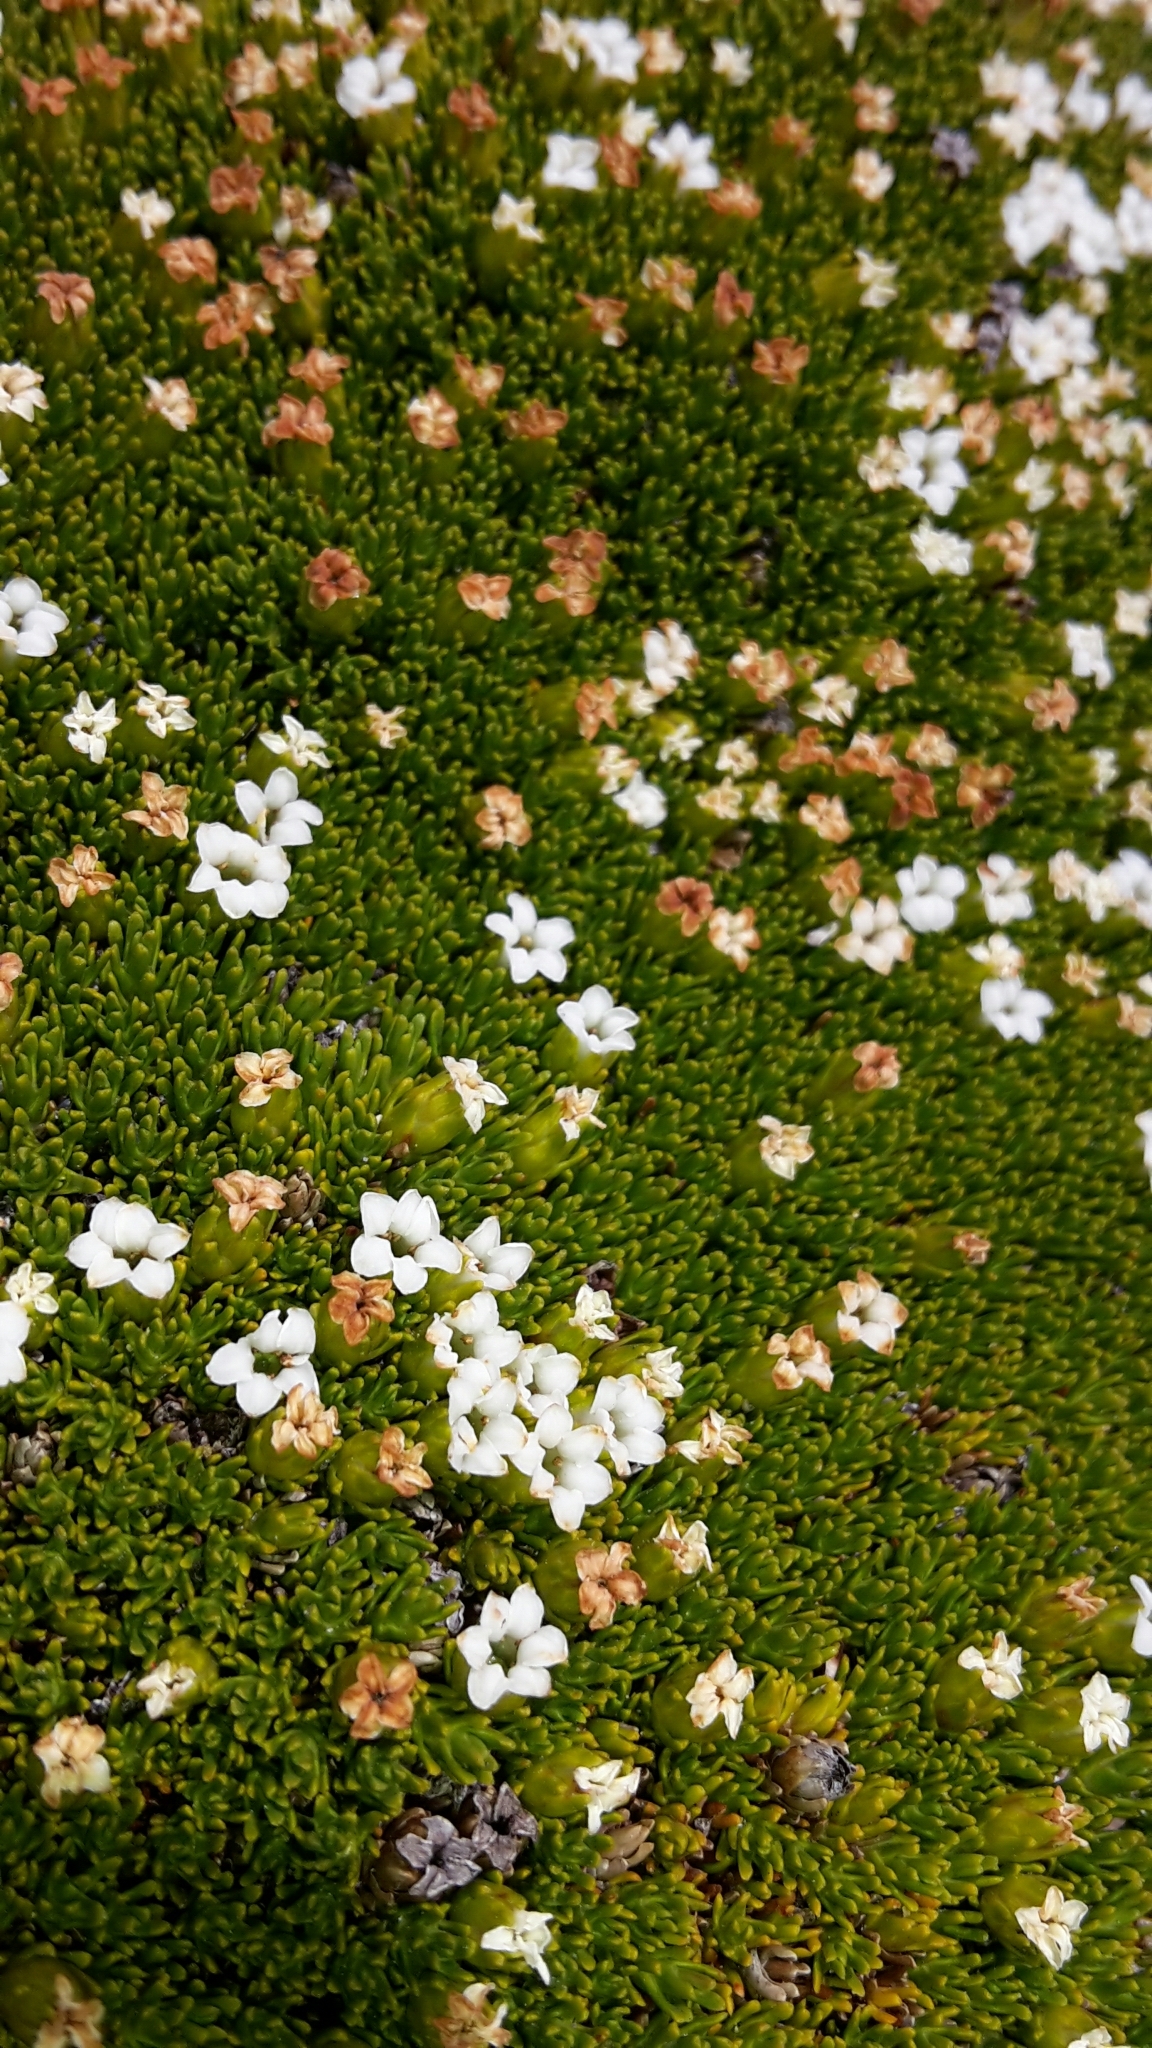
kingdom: Plantae
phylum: Tracheophyta
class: Magnoliopsida
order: Ericales
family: Ericaceae
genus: Dracophyllum
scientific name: Dracophyllum muscoides
